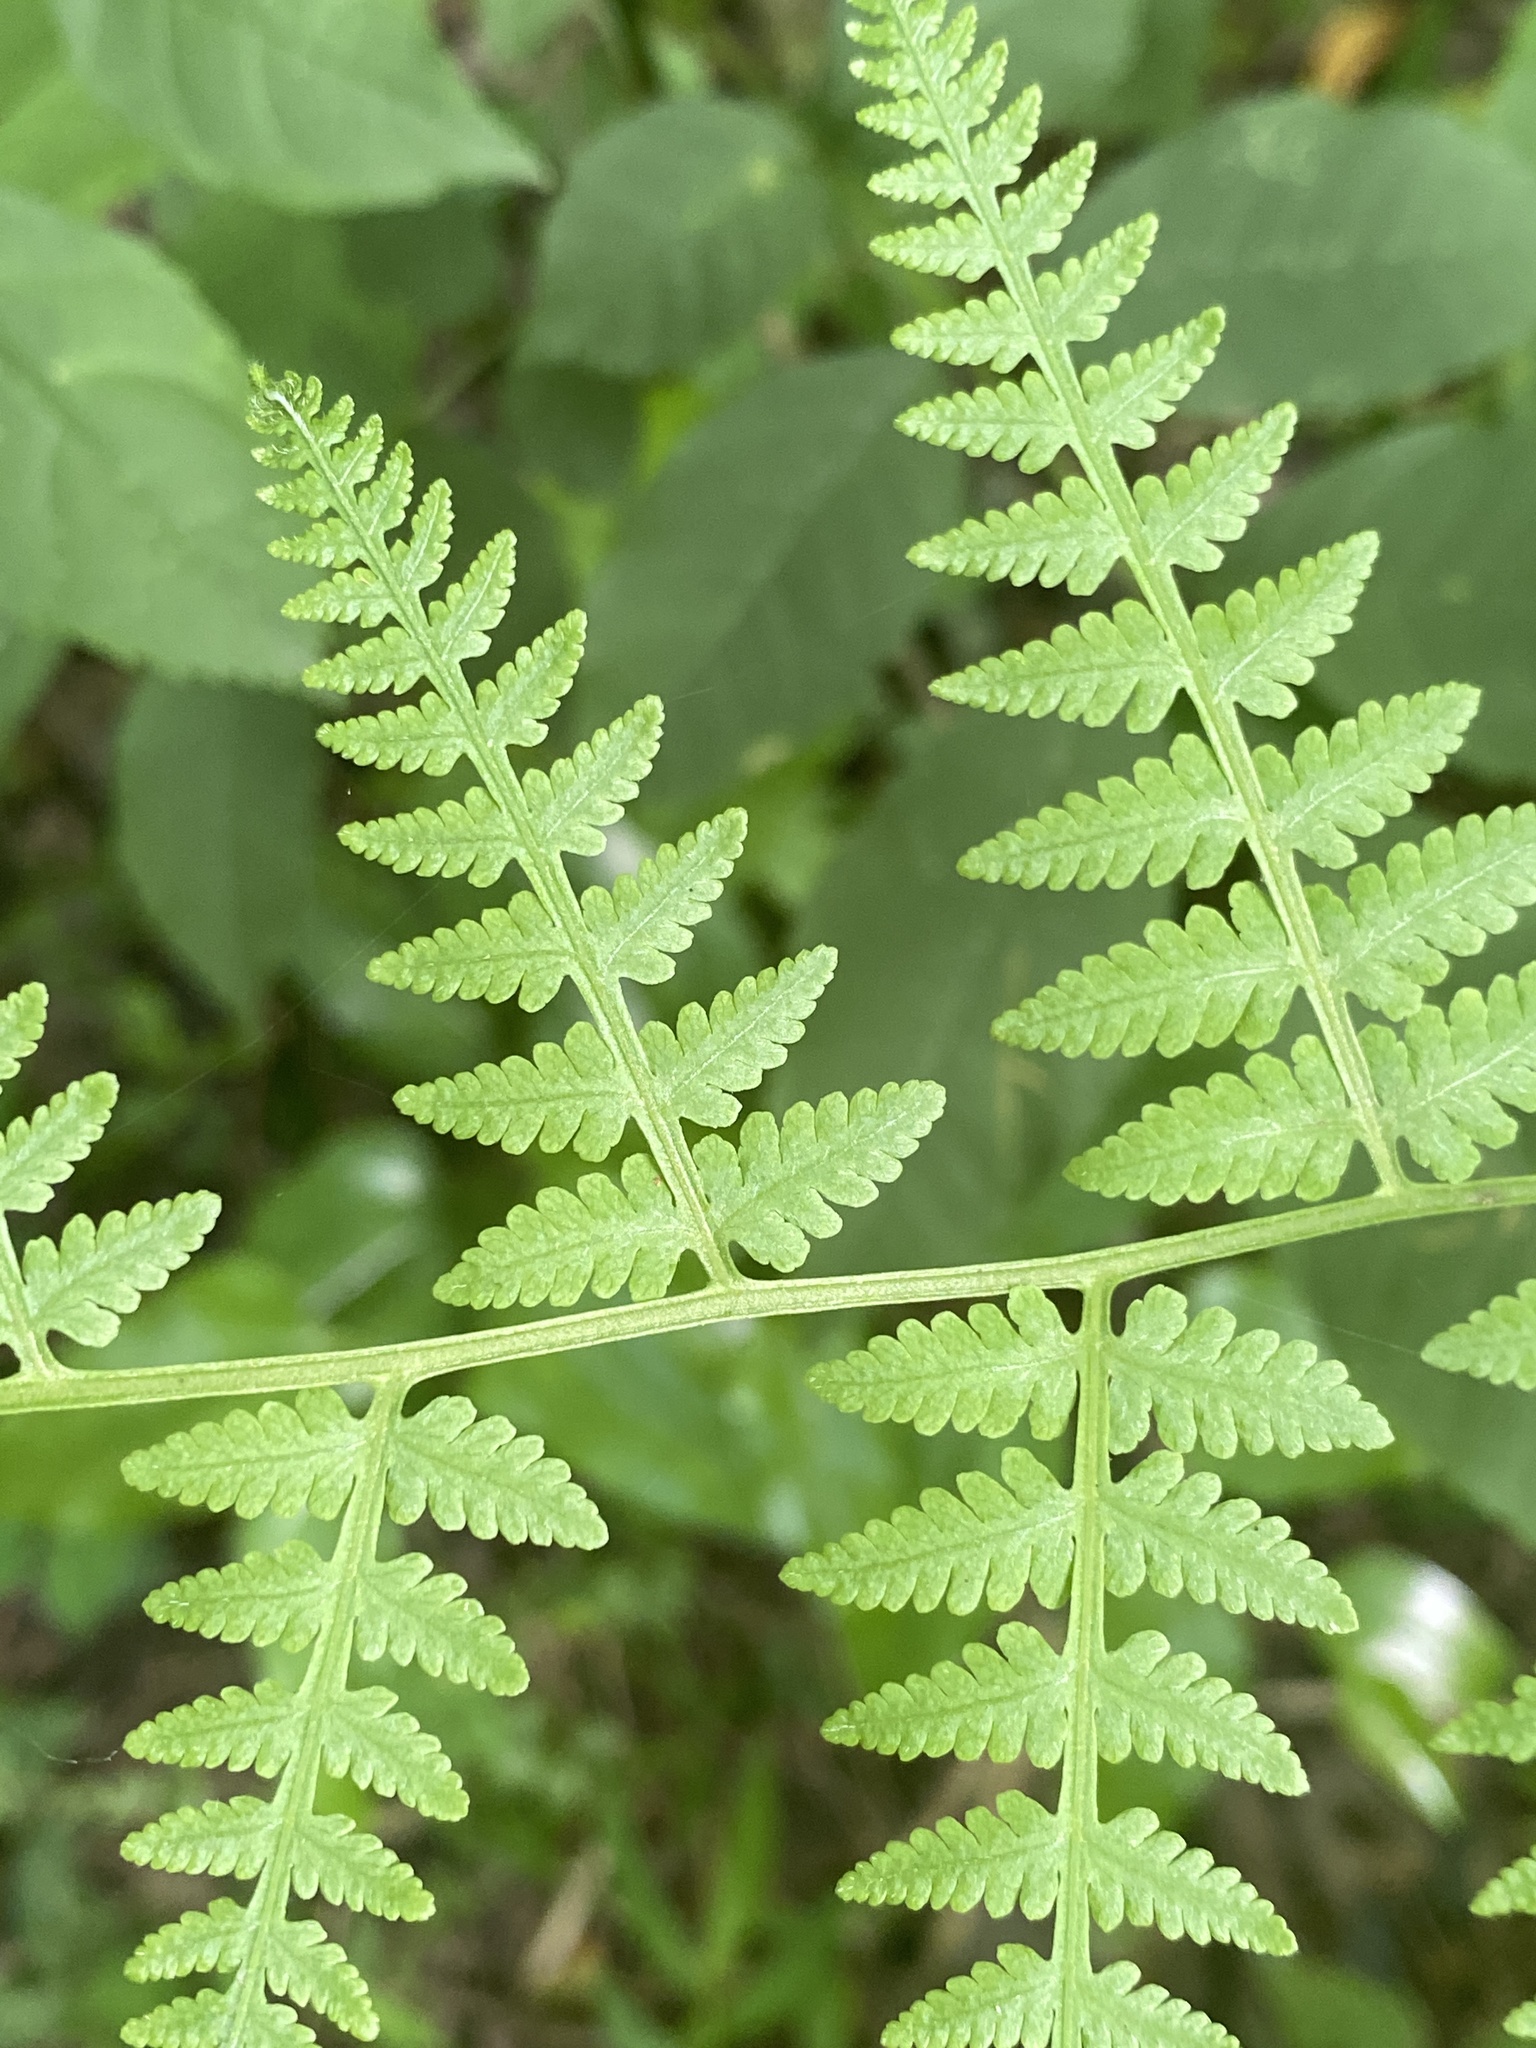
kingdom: Plantae
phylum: Tracheophyta
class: Polypodiopsida
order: Polypodiales
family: Thelypteridaceae
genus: Macrothelypteris
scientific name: Macrothelypteris torresiana
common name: Swordfern
